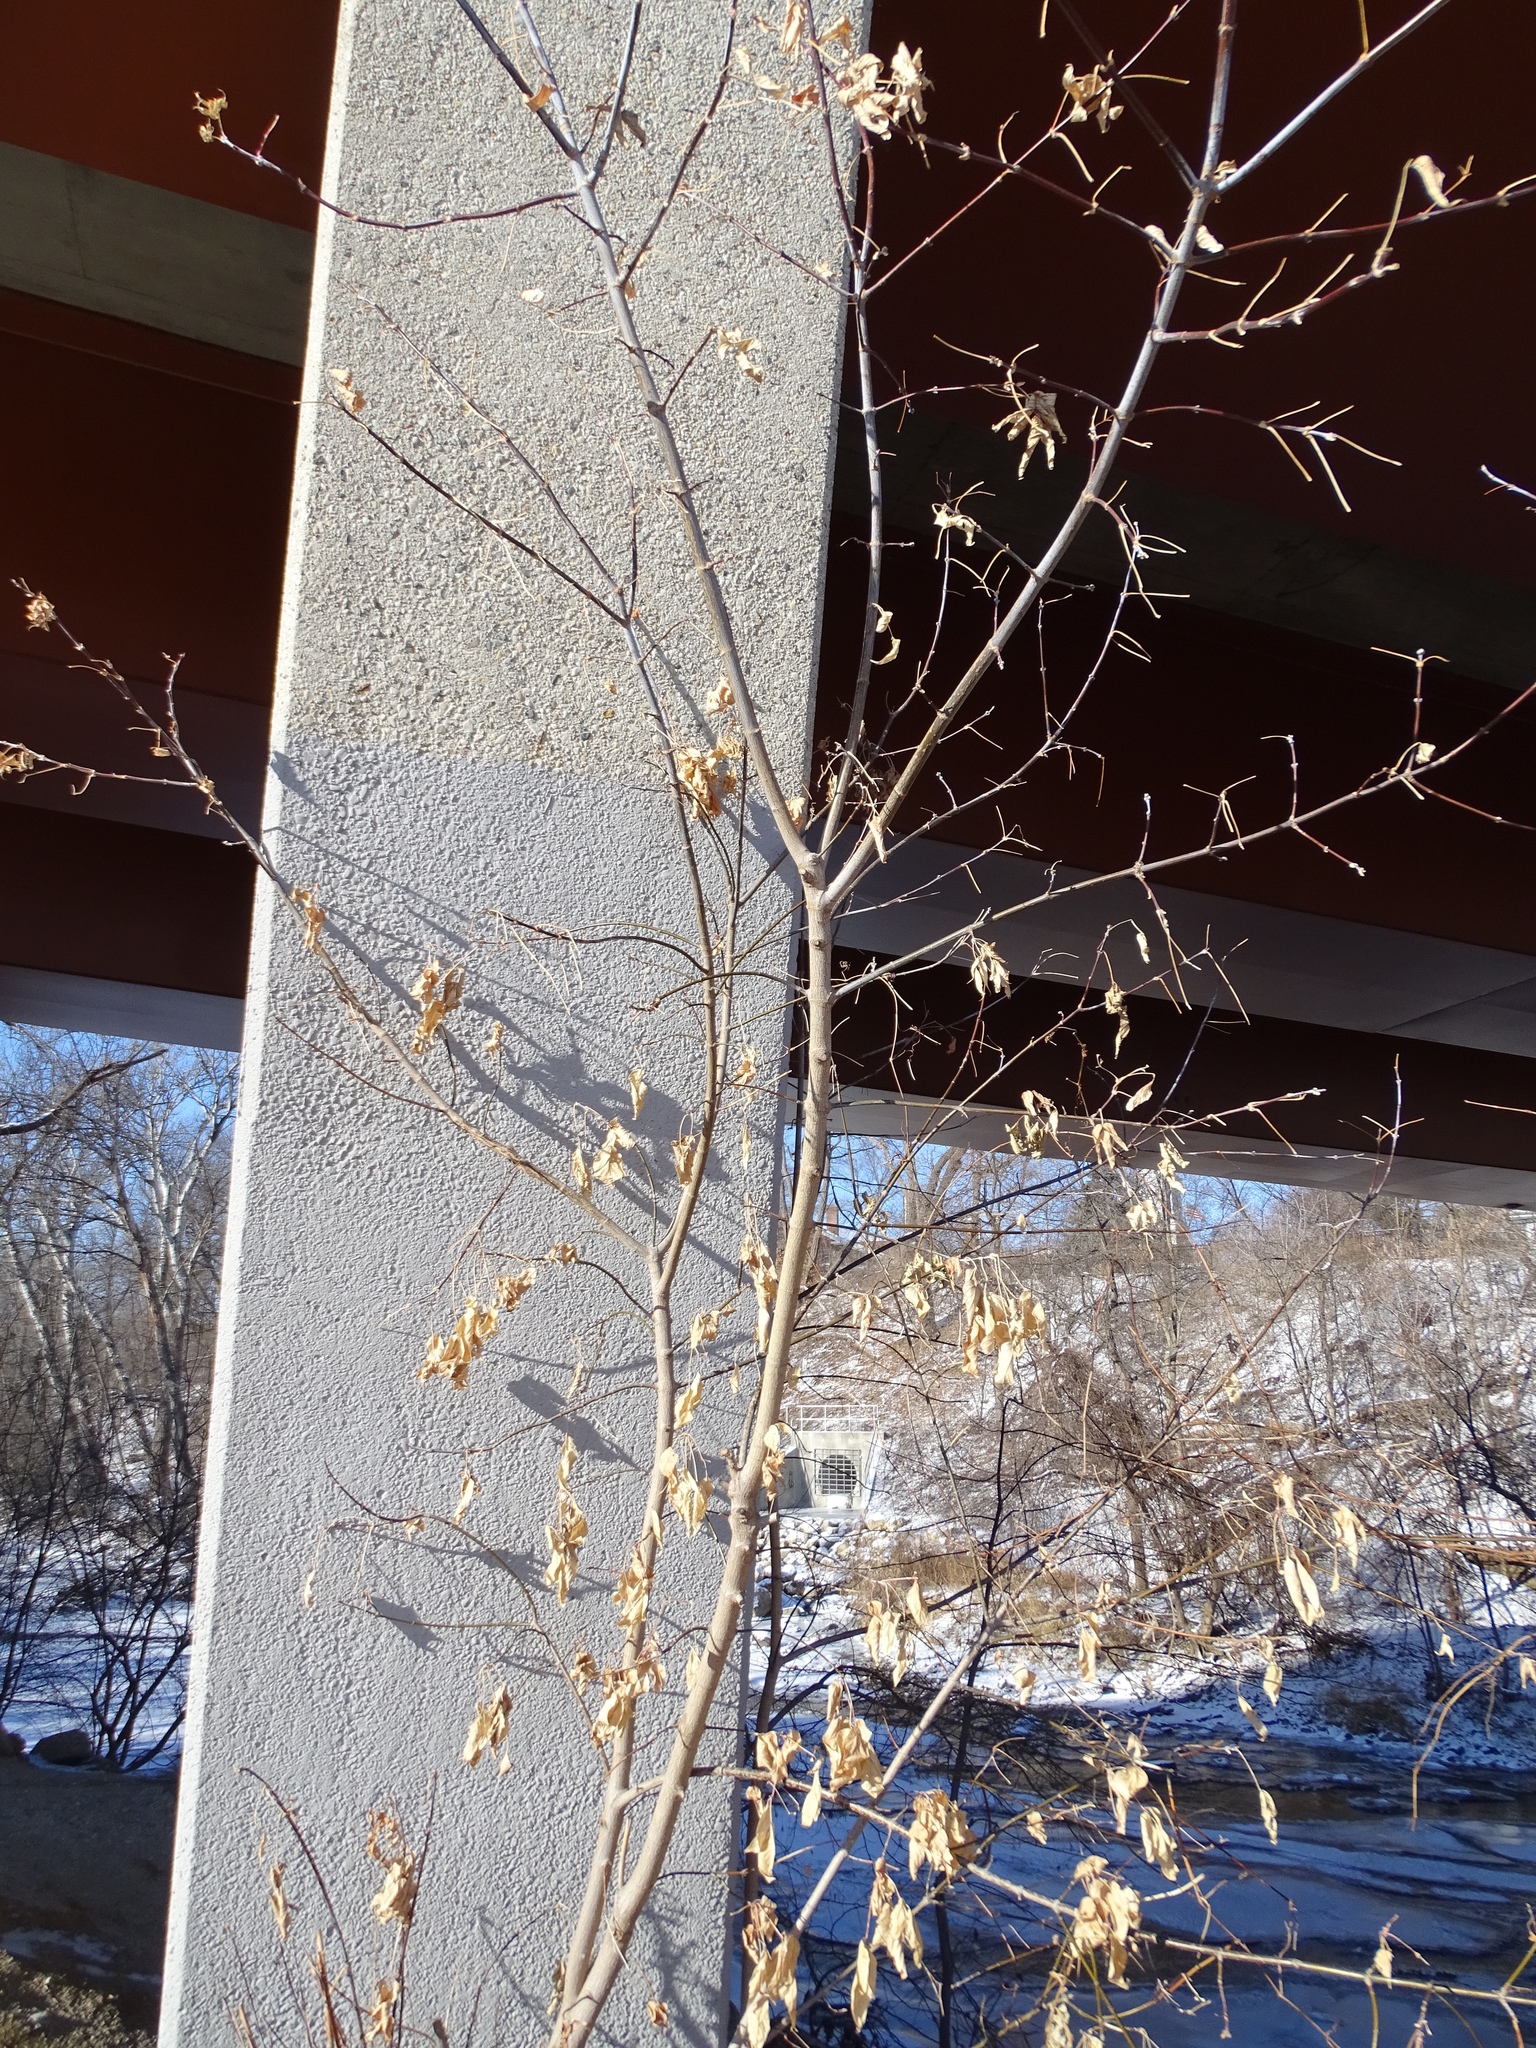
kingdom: Plantae
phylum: Tracheophyta
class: Magnoliopsida
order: Sapindales
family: Sapindaceae
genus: Acer
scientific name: Acer negundo
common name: Ashleaf maple
